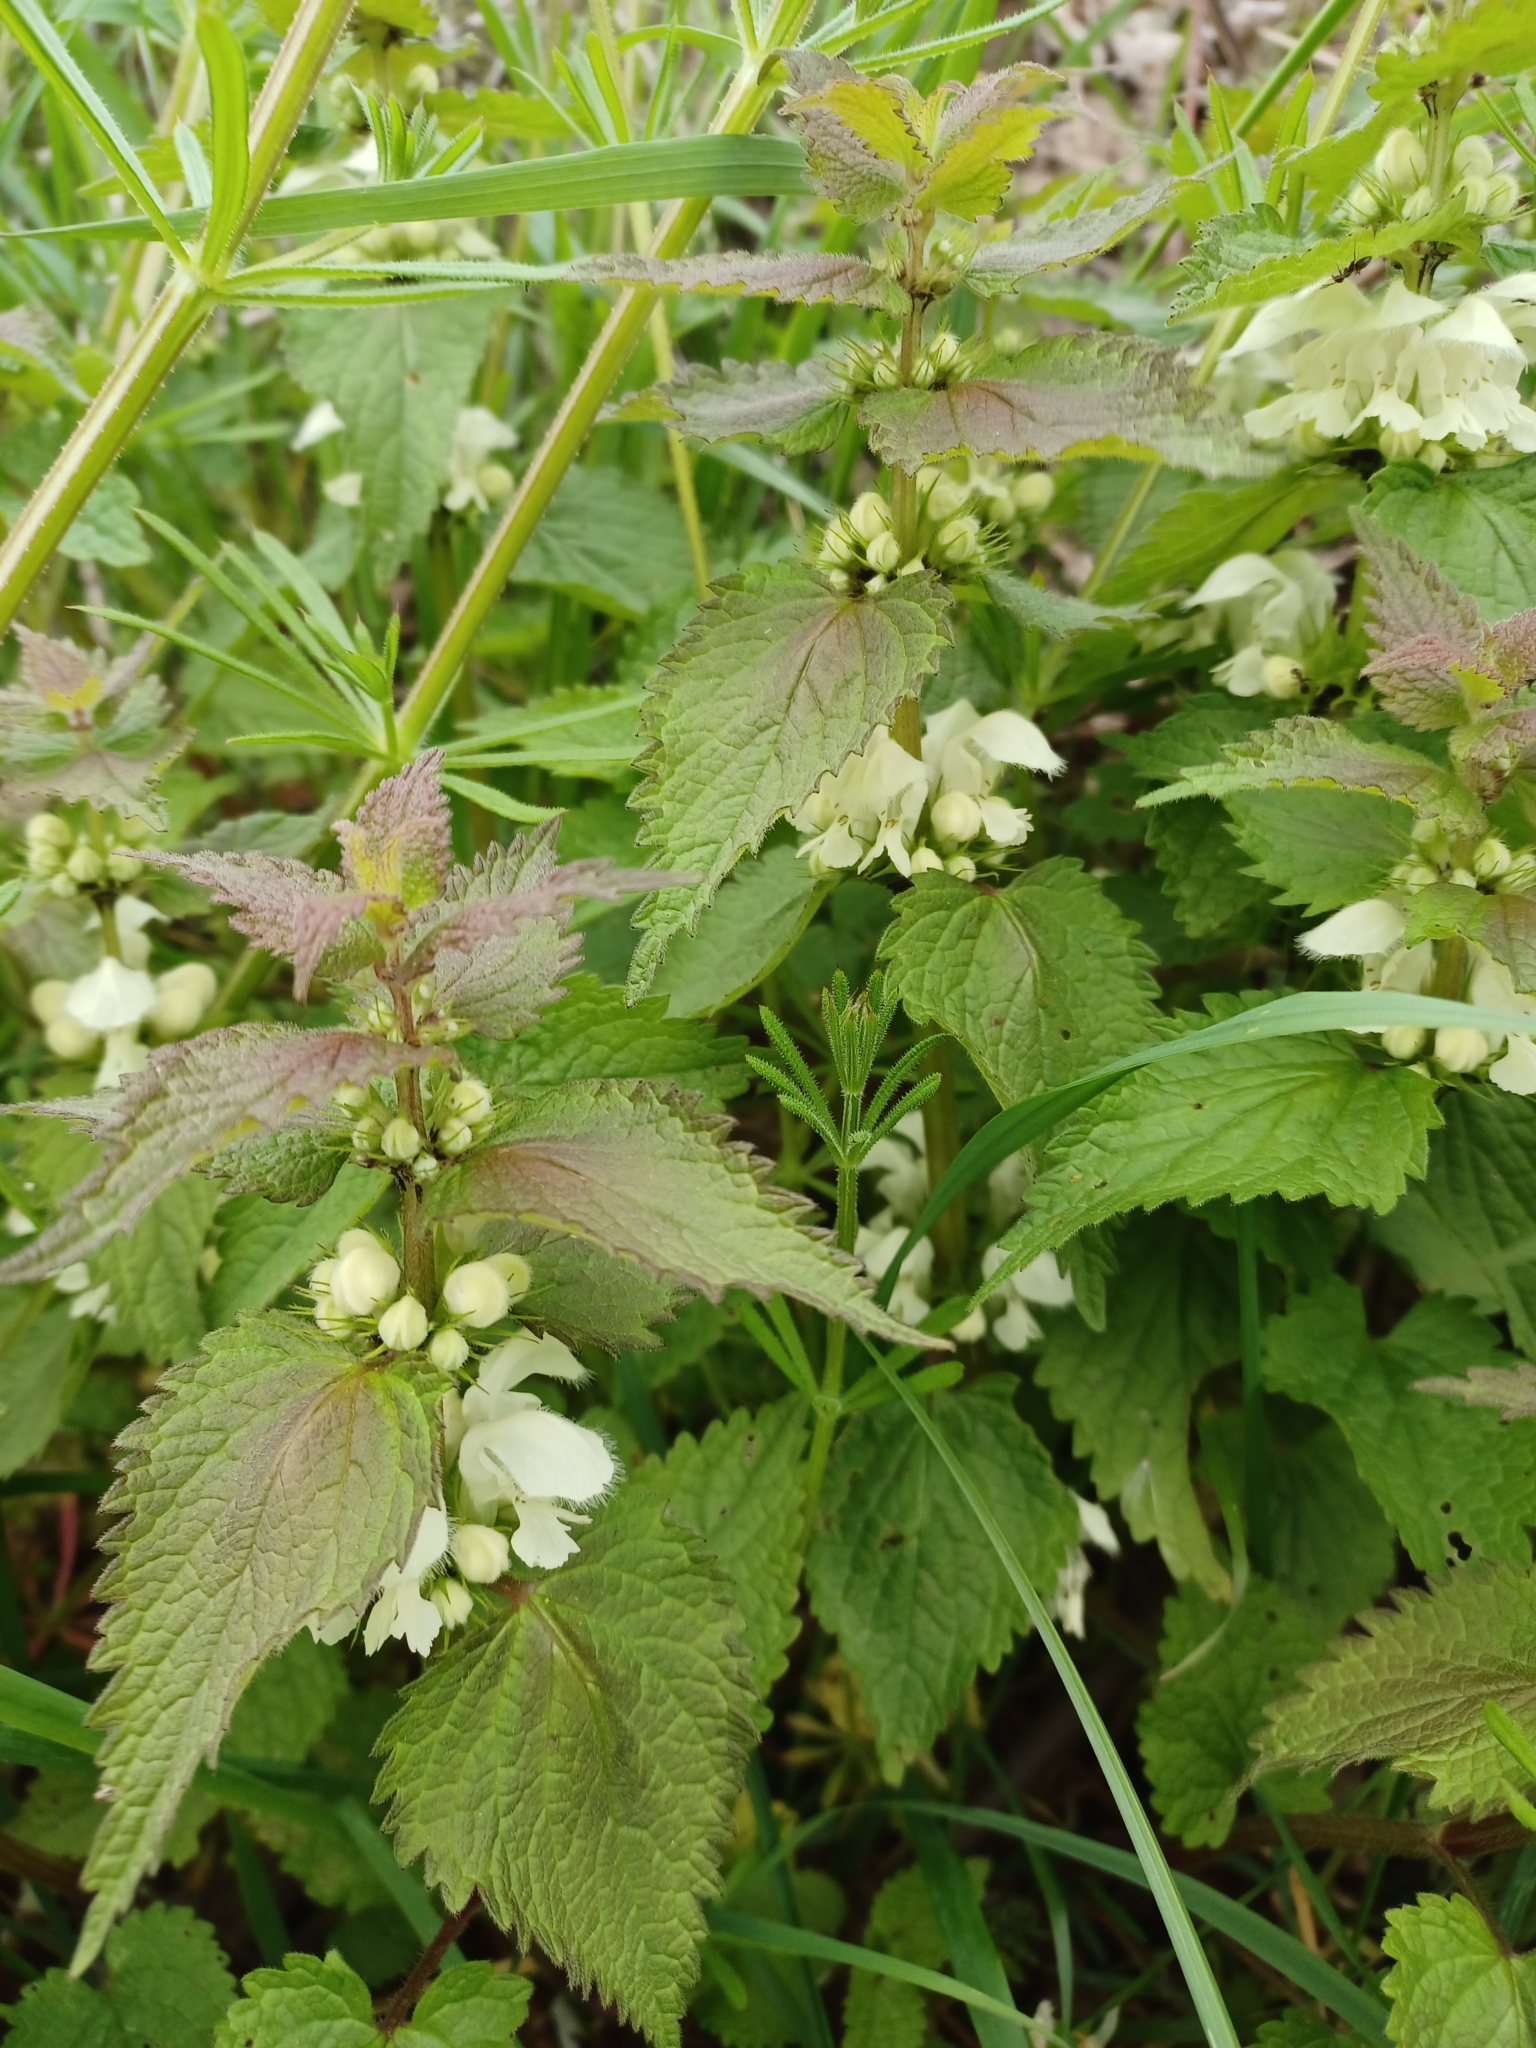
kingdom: Plantae
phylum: Tracheophyta
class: Magnoliopsida
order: Lamiales
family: Lamiaceae
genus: Lamium
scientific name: Lamium album
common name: White dead-nettle
